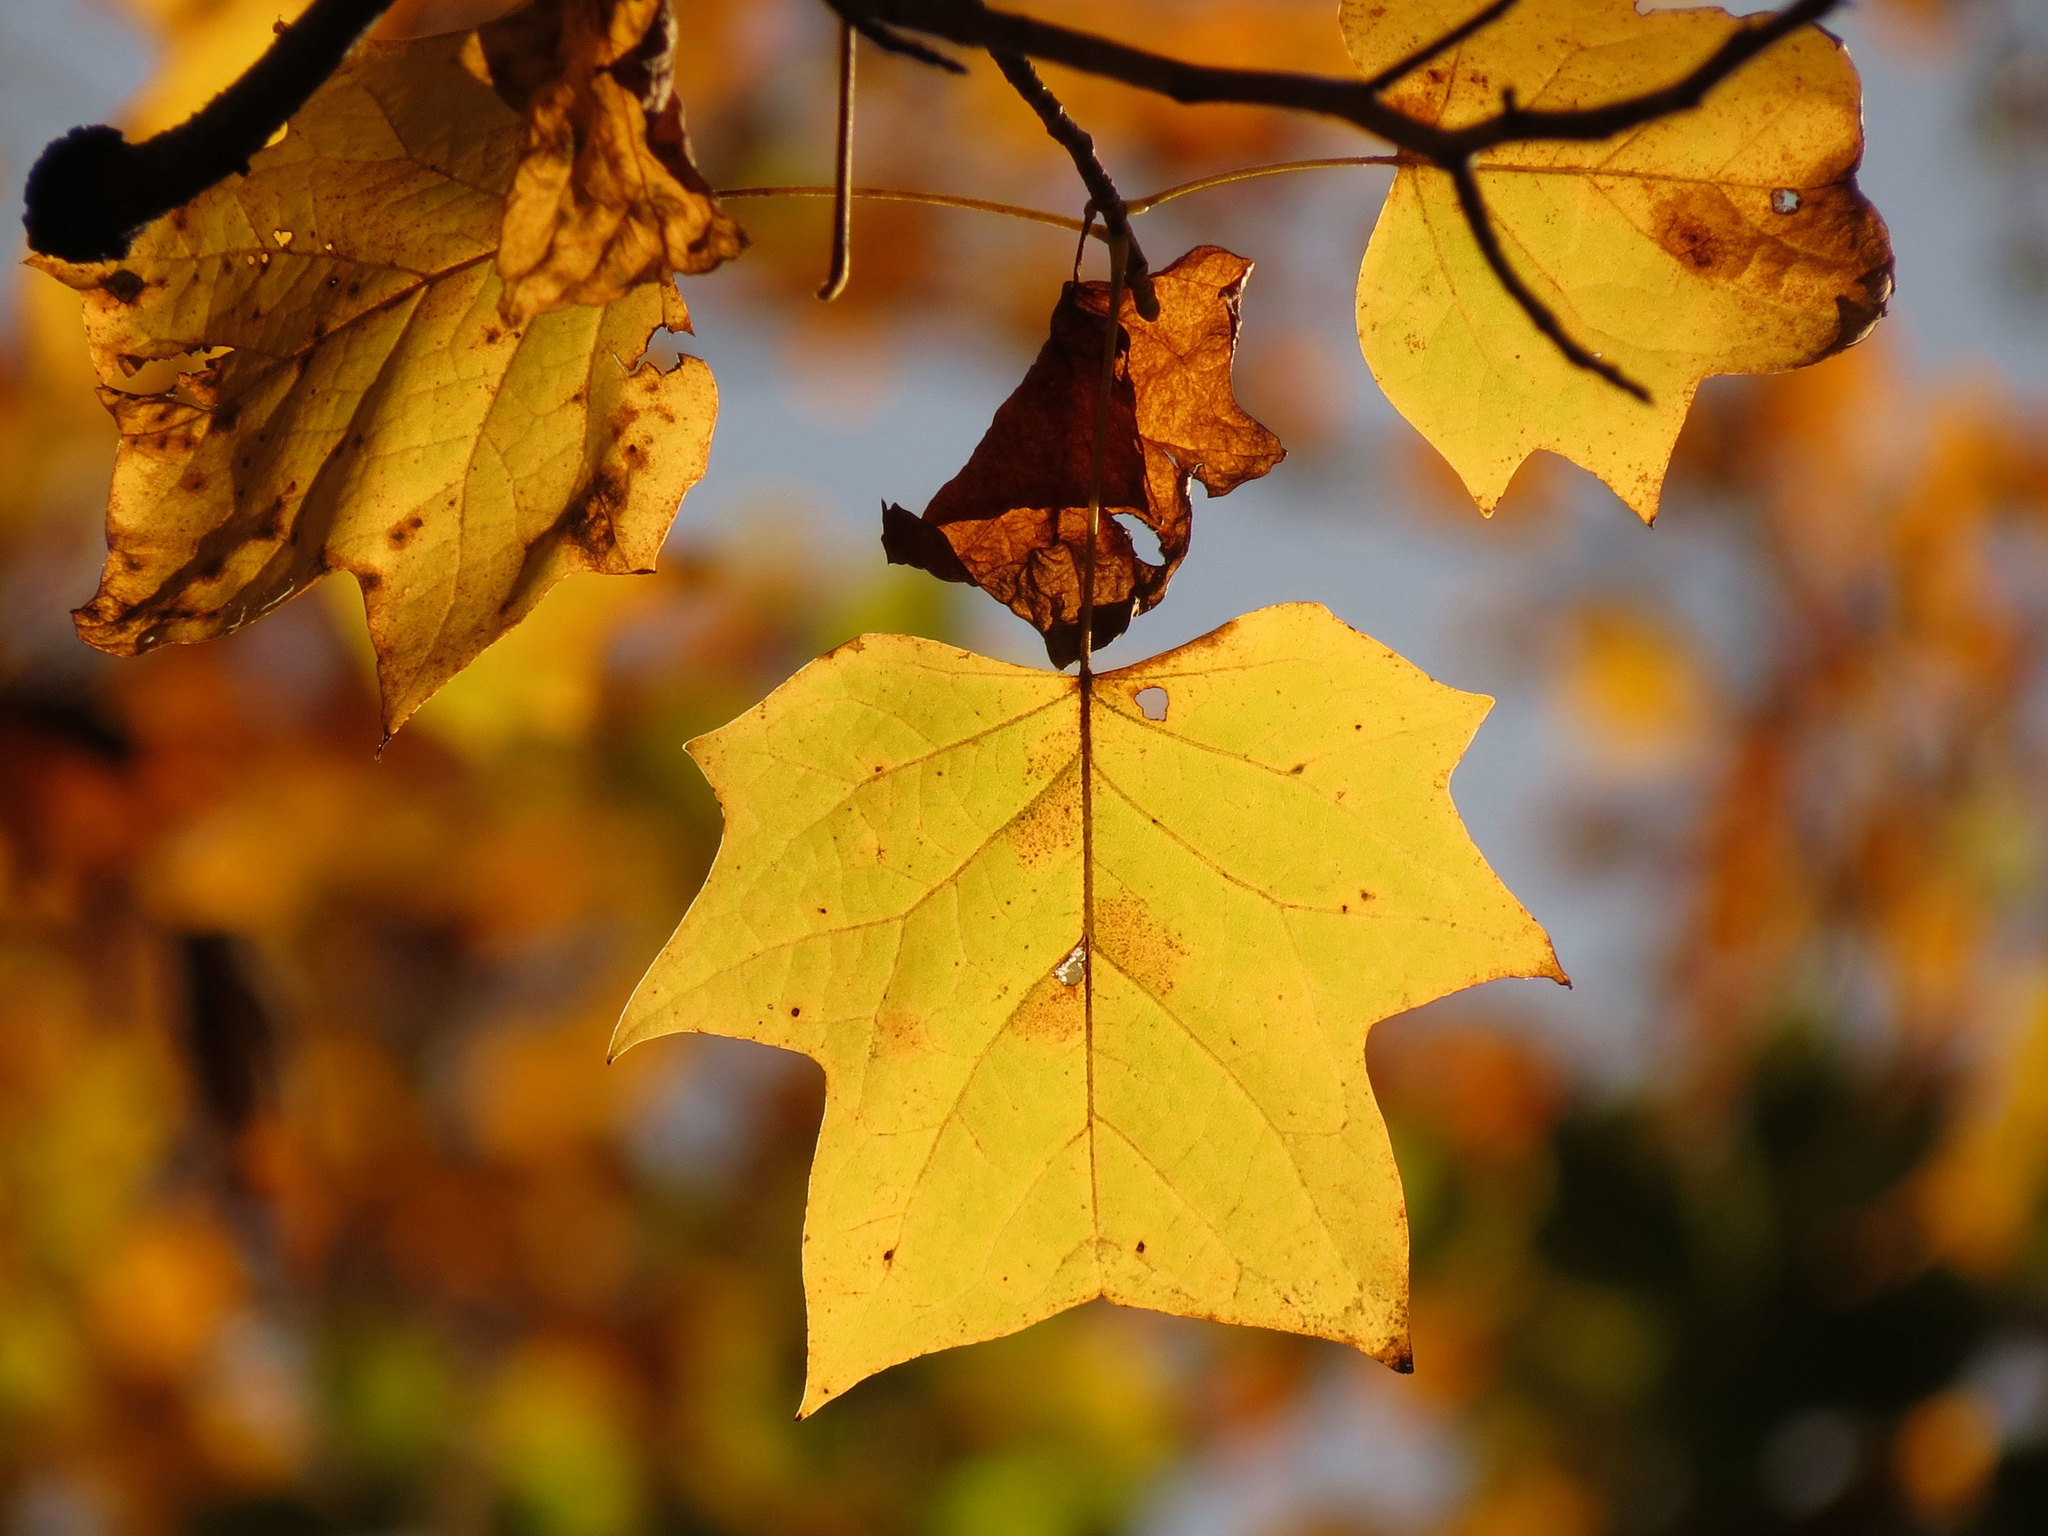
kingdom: Plantae
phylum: Tracheophyta
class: Magnoliopsida
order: Magnoliales
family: Magnoliaceae
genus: Liriodendron
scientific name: Liriodendron tulipifera
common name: Tulip tree
